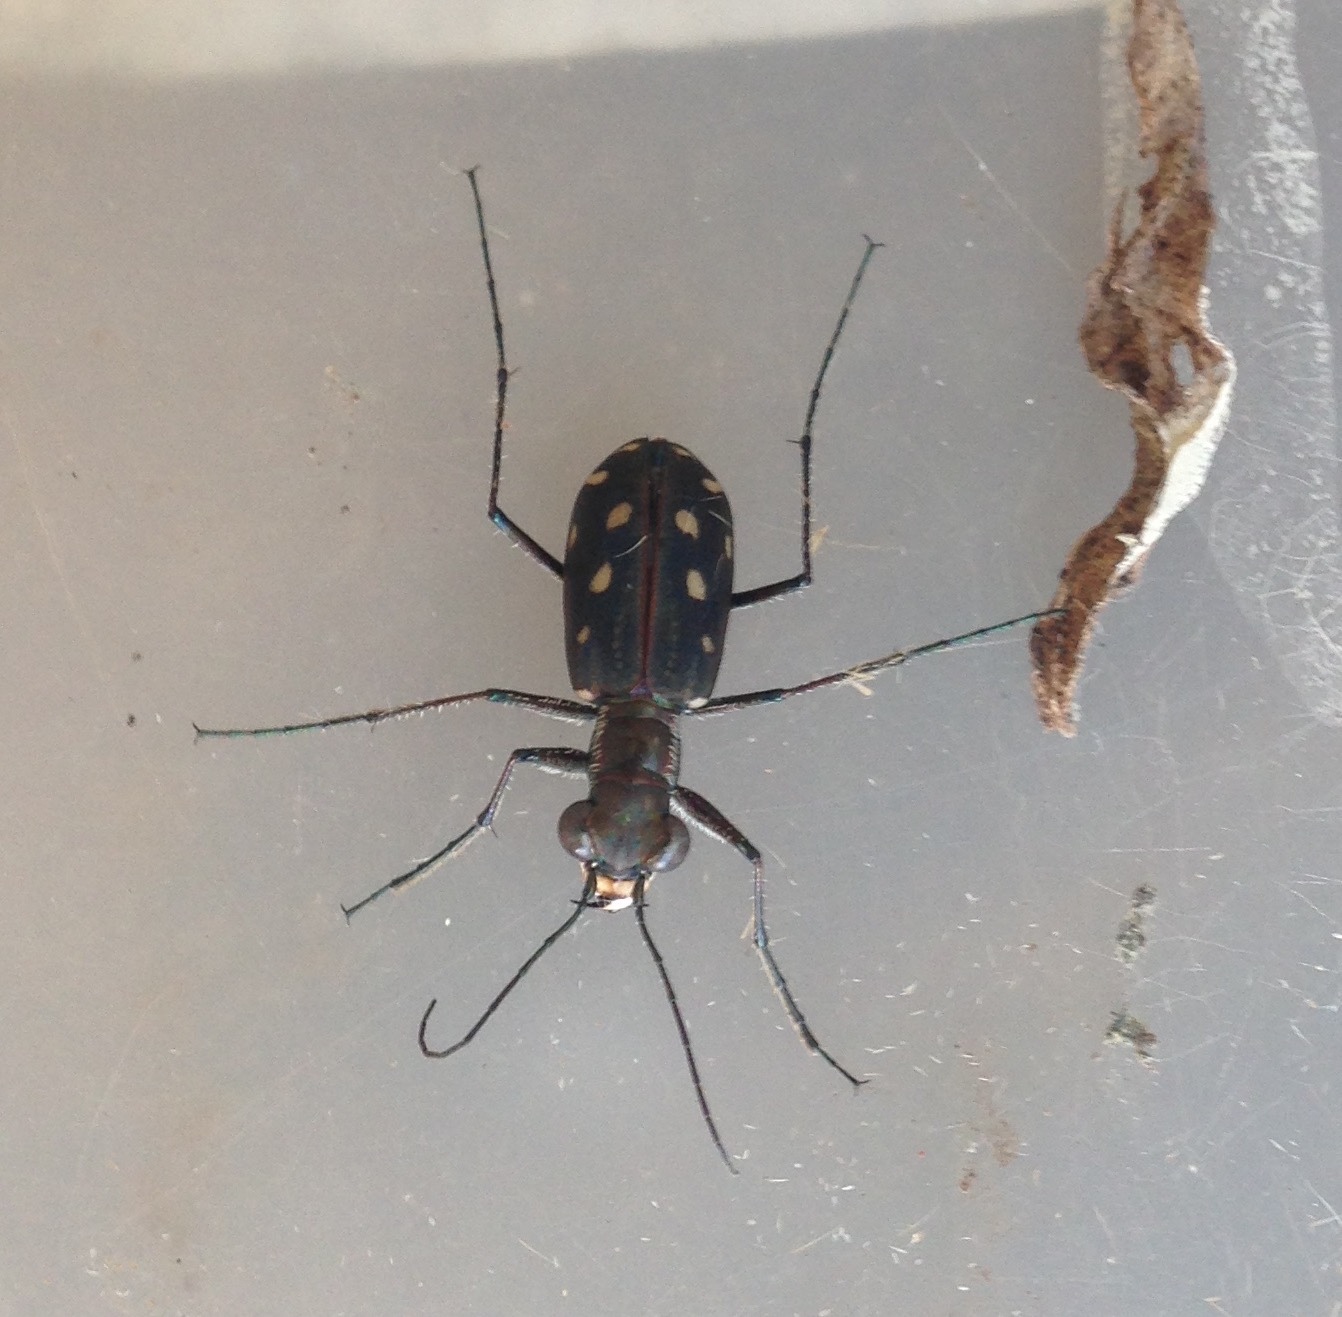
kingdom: Animalia
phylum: Arthropoda
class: Insecta
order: Coleoptera
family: Carabidae
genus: Cicindela
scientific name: Cicindela mindanaoensis
